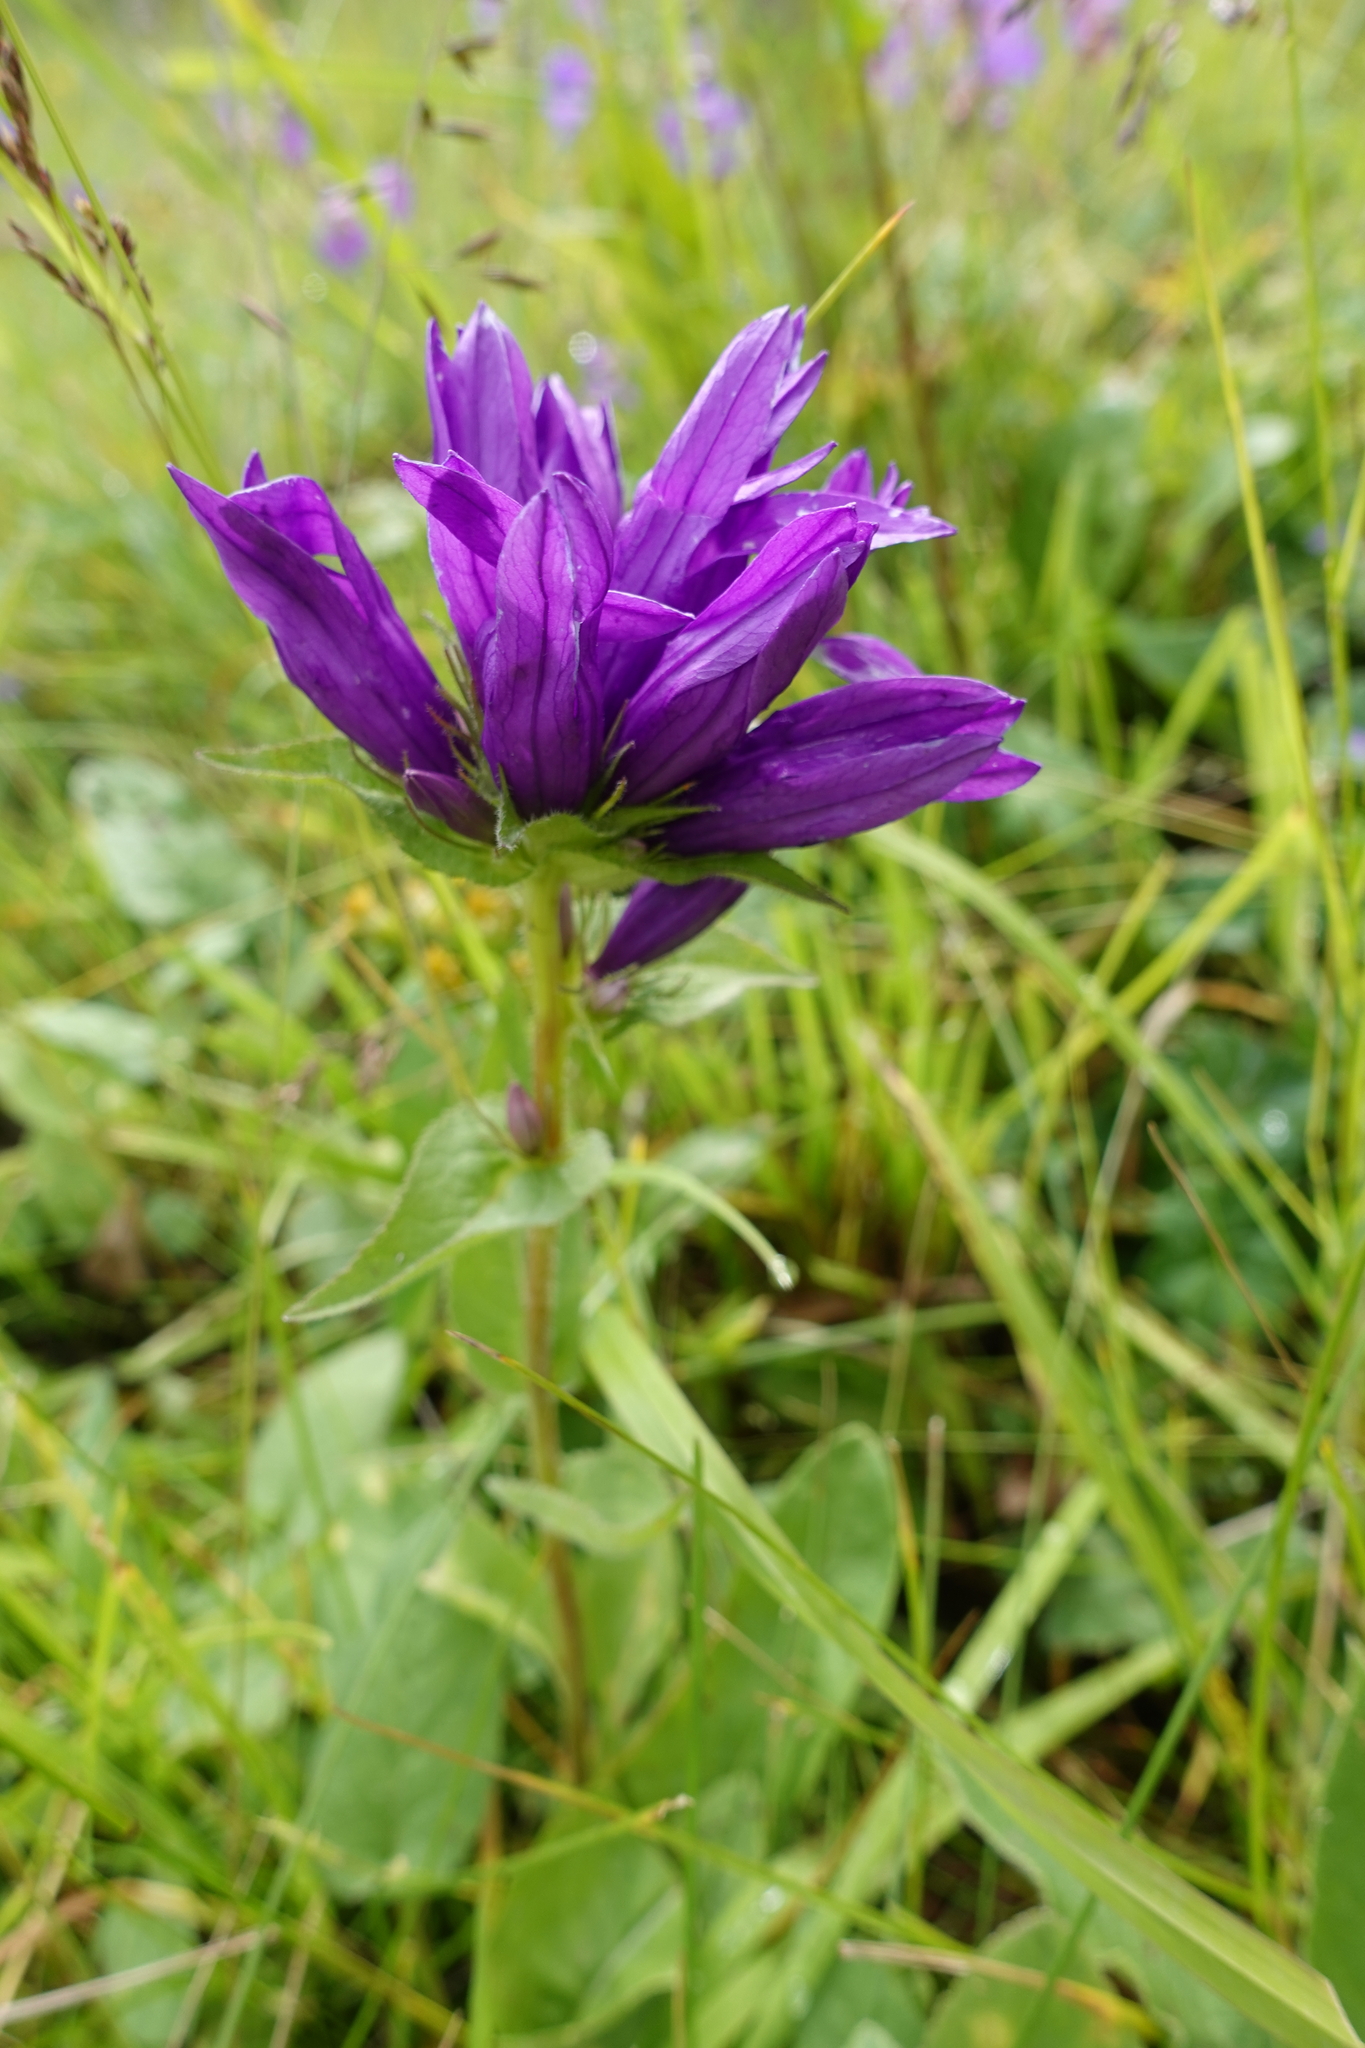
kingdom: Plantae
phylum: Tracheophyta
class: Magnoliopsida
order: Asterales
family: Campanulaceae
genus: Campanula
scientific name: Campanula glomerata
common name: Clustered bellflower
